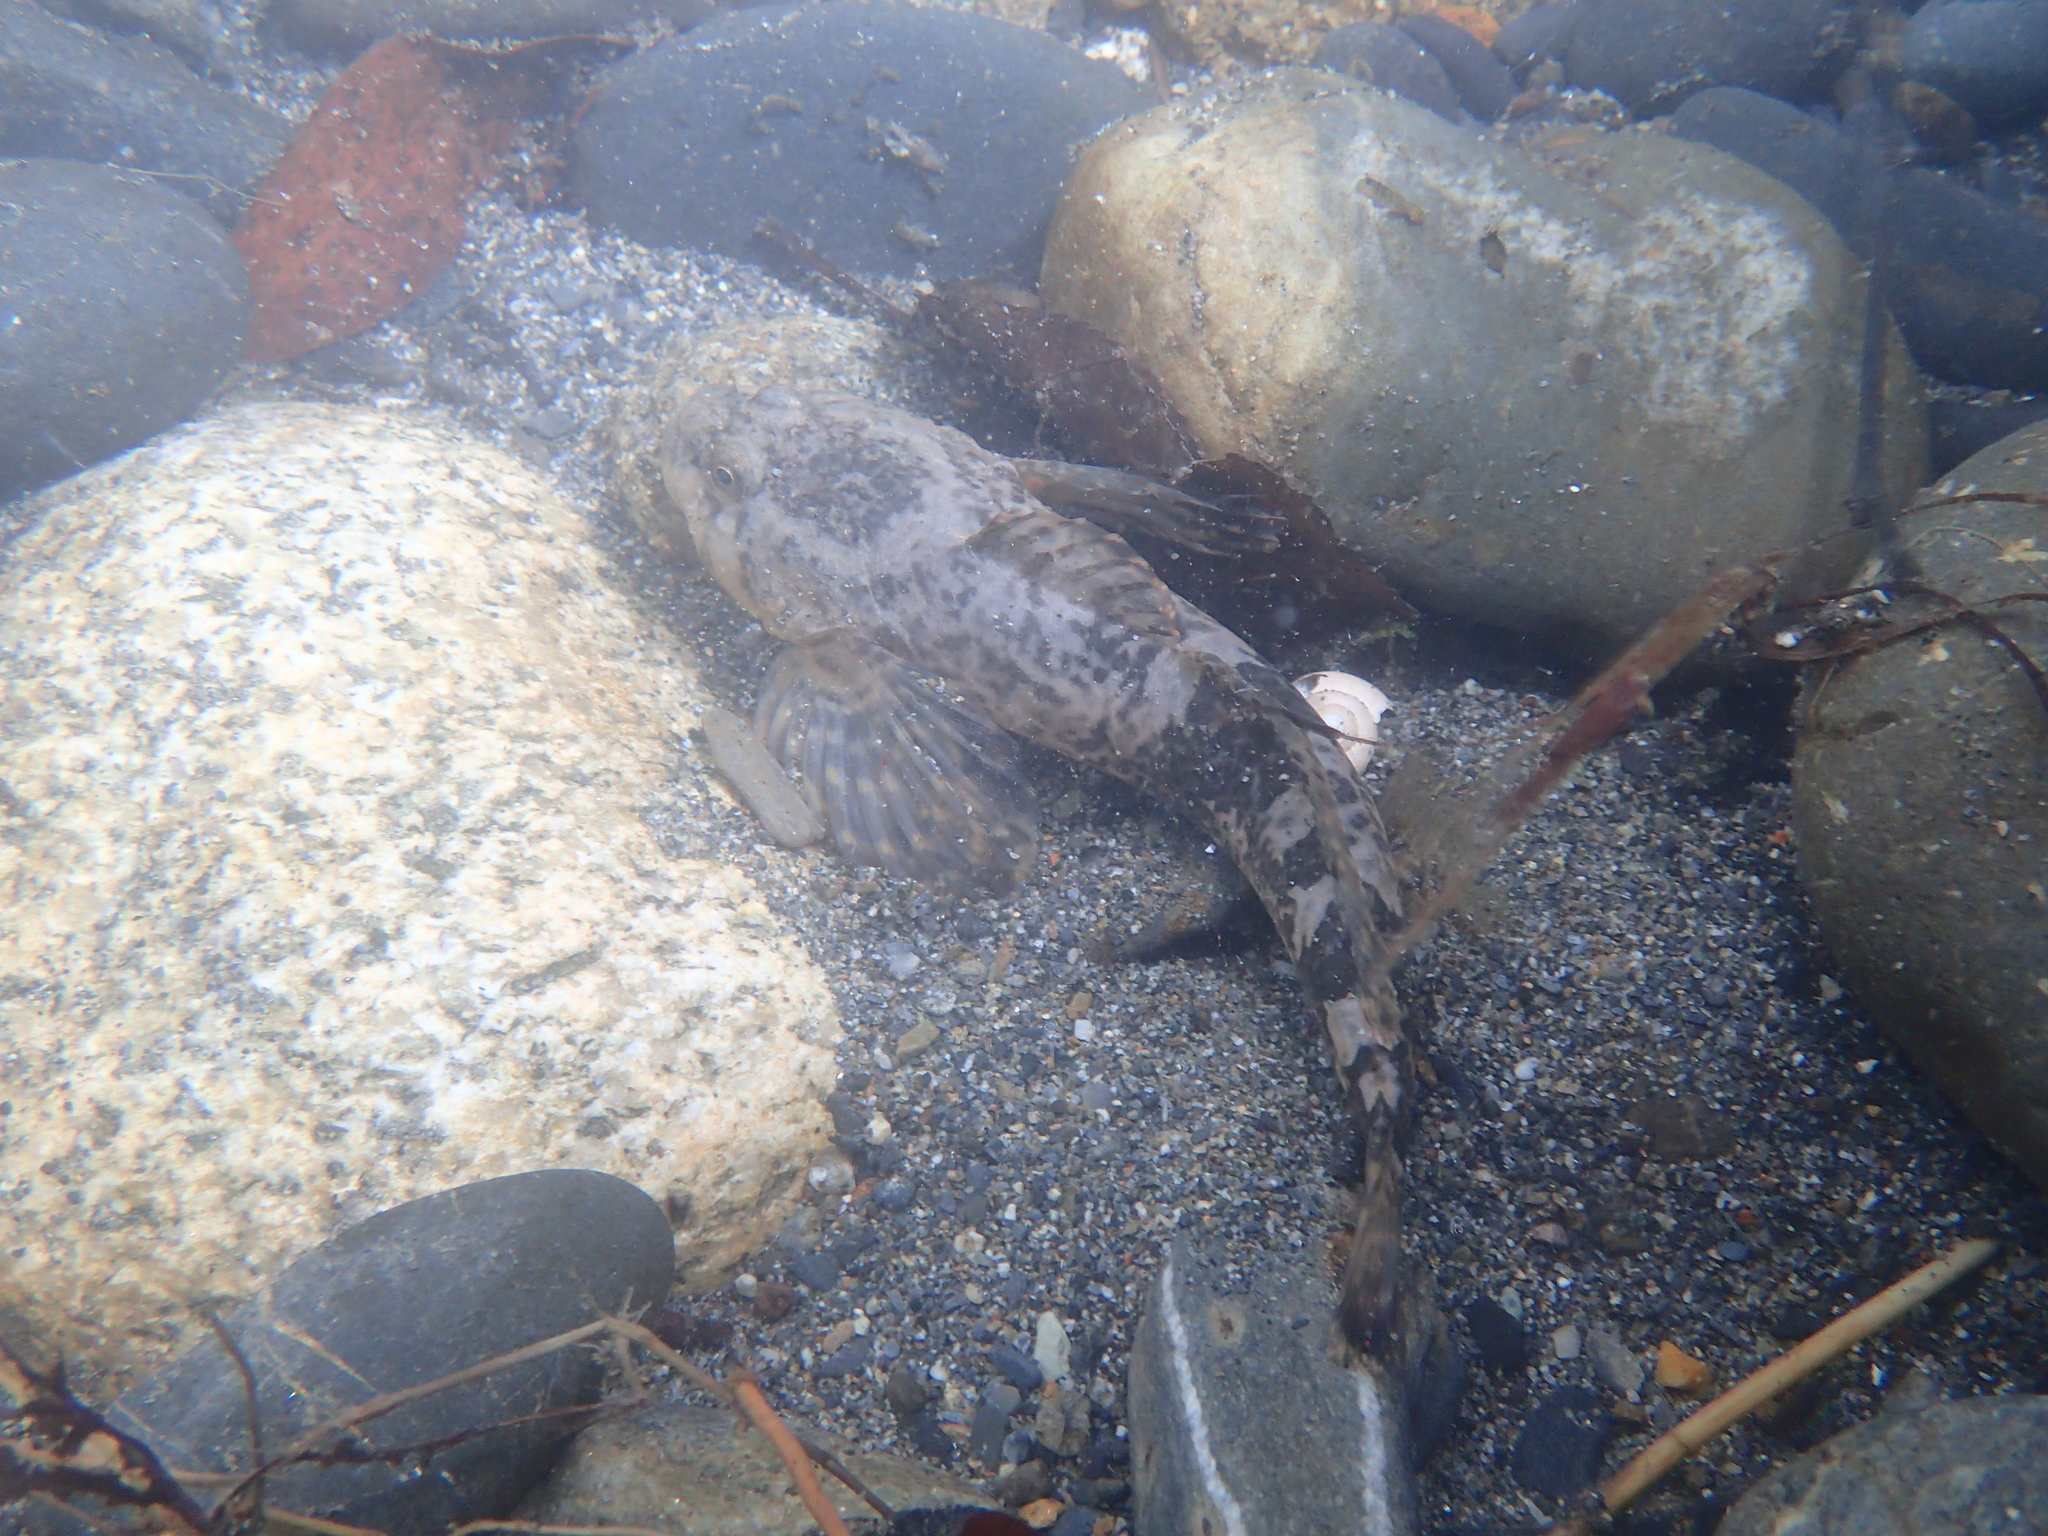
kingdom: Animalia
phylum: Chordata
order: Scorpaeniformes
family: Cottidae
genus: Cottus
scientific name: Cottus aturi
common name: Adour sculpin
